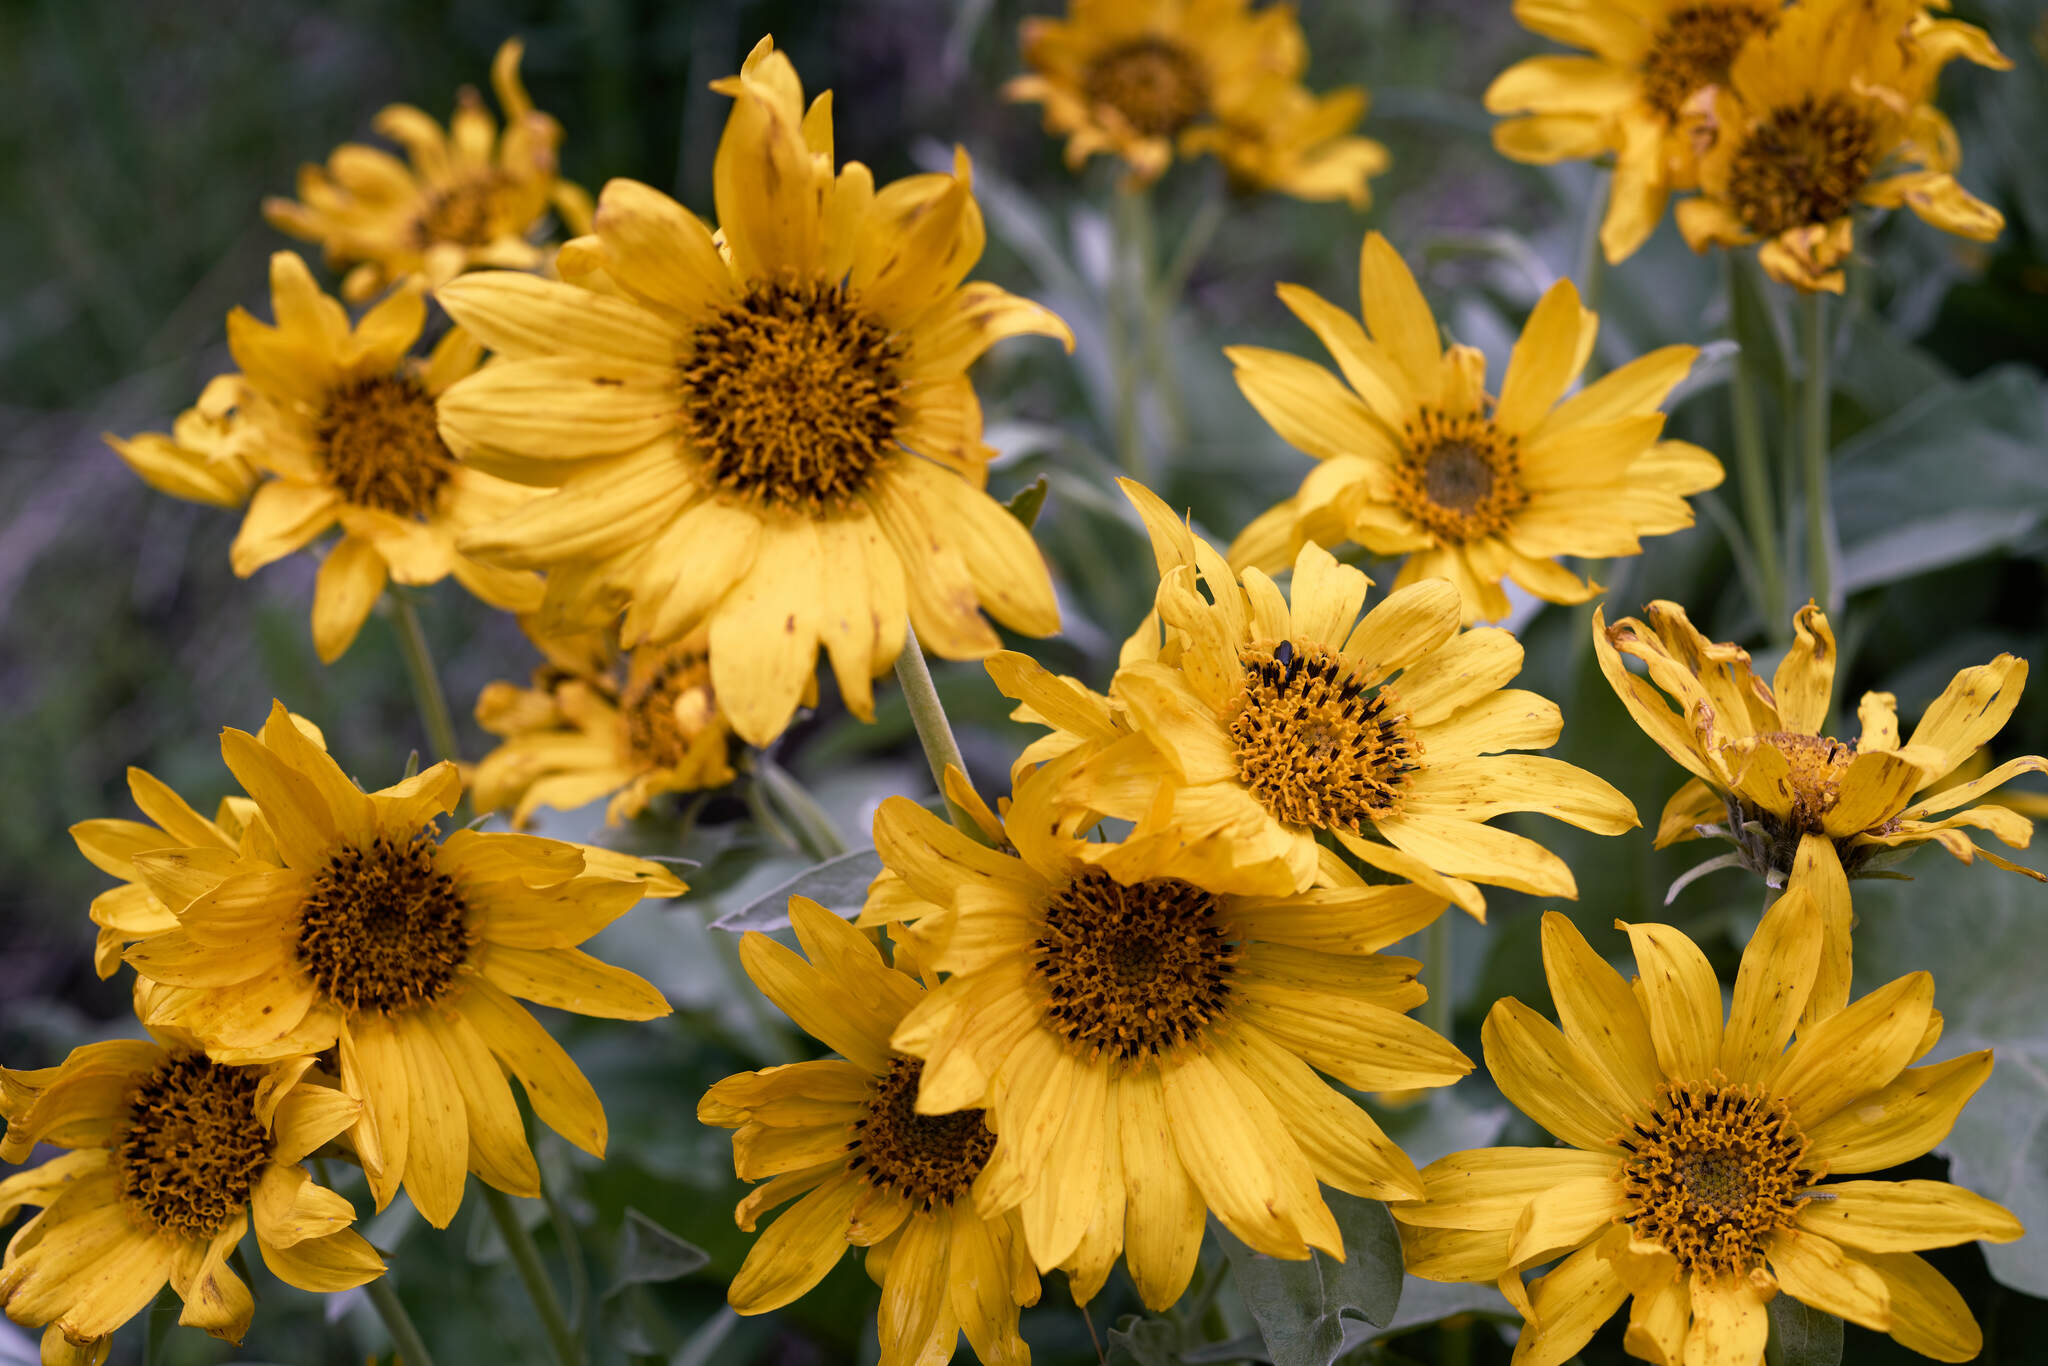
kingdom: Plantae
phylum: Tracheophyta
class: Magnoliopsida
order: Asterales
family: Asteraceae
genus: Wyethia
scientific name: Wyethia sagittata
